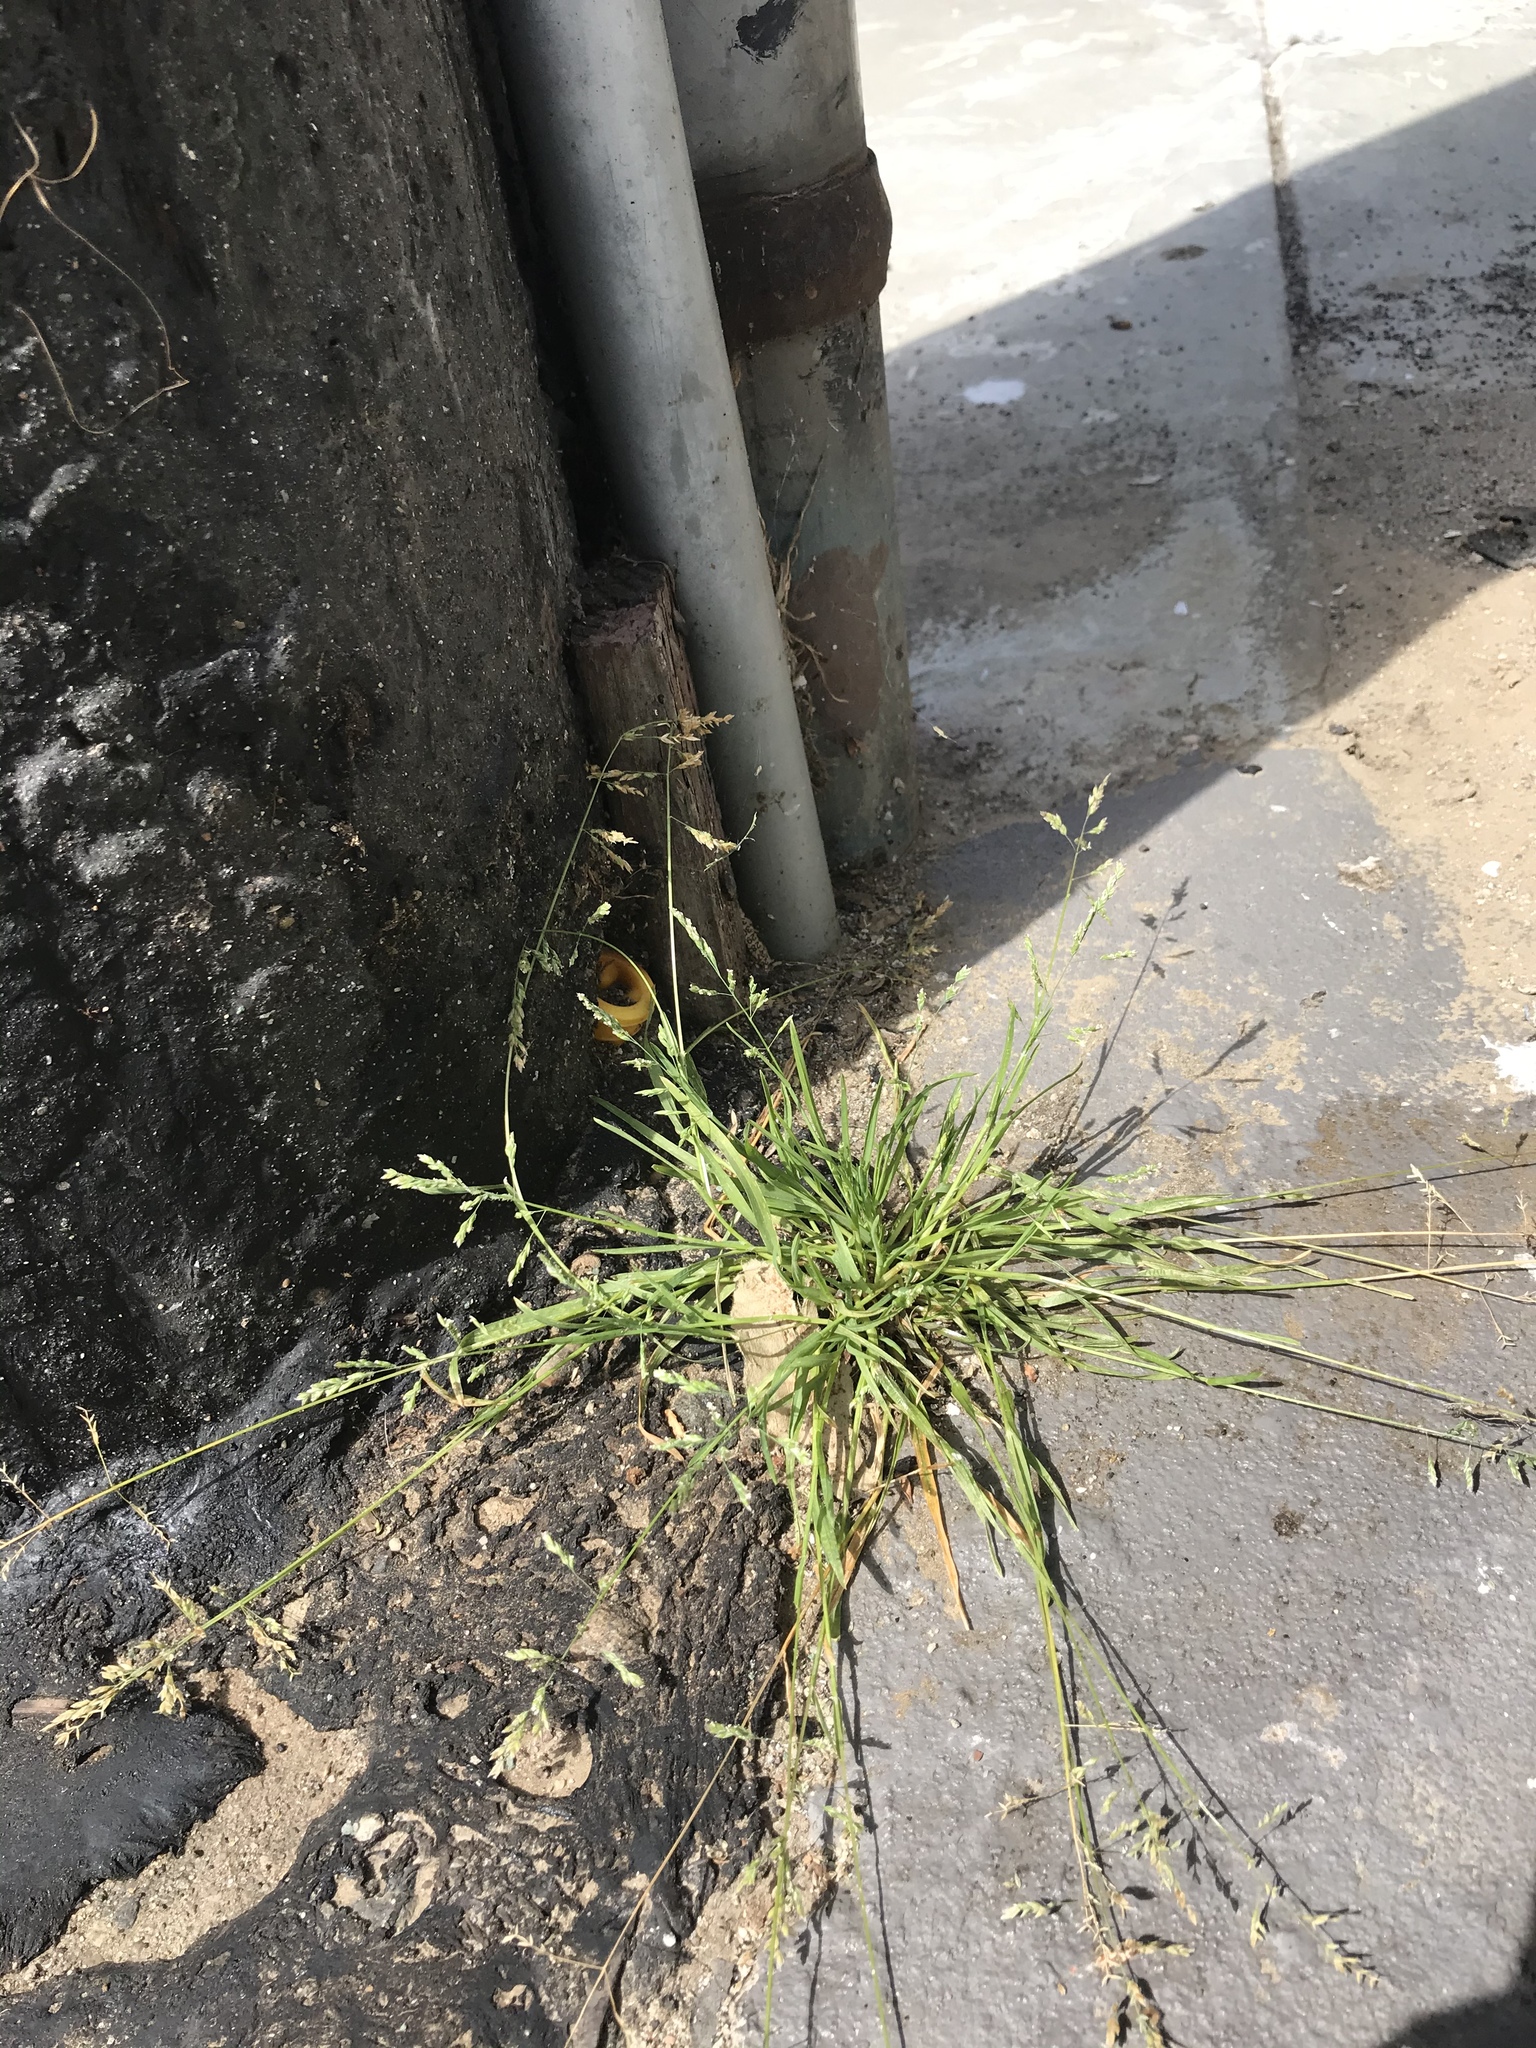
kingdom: Plantae
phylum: Tracheophyta
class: Liliopsida
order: Poales
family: Poaceae
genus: Poa
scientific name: Poa annua
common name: Annual bluegrass
